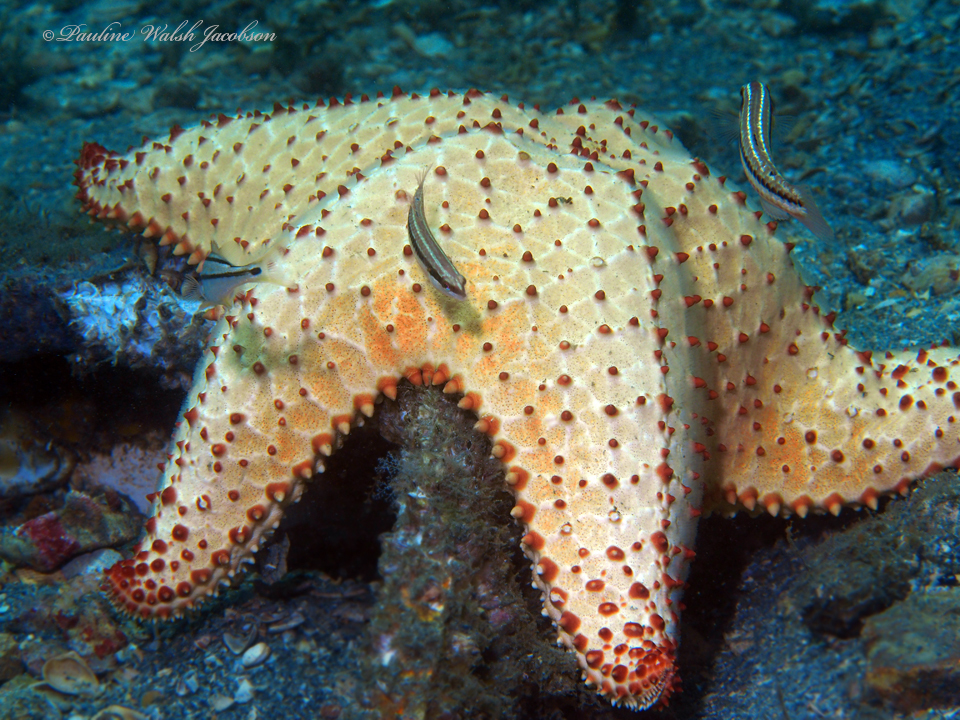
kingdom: Animalia
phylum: Echinodermata
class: Asteroidea
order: Valvatida
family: Oreasteridae
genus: Oreaster
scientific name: Oreaster reticulatus
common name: Cushion sea star
